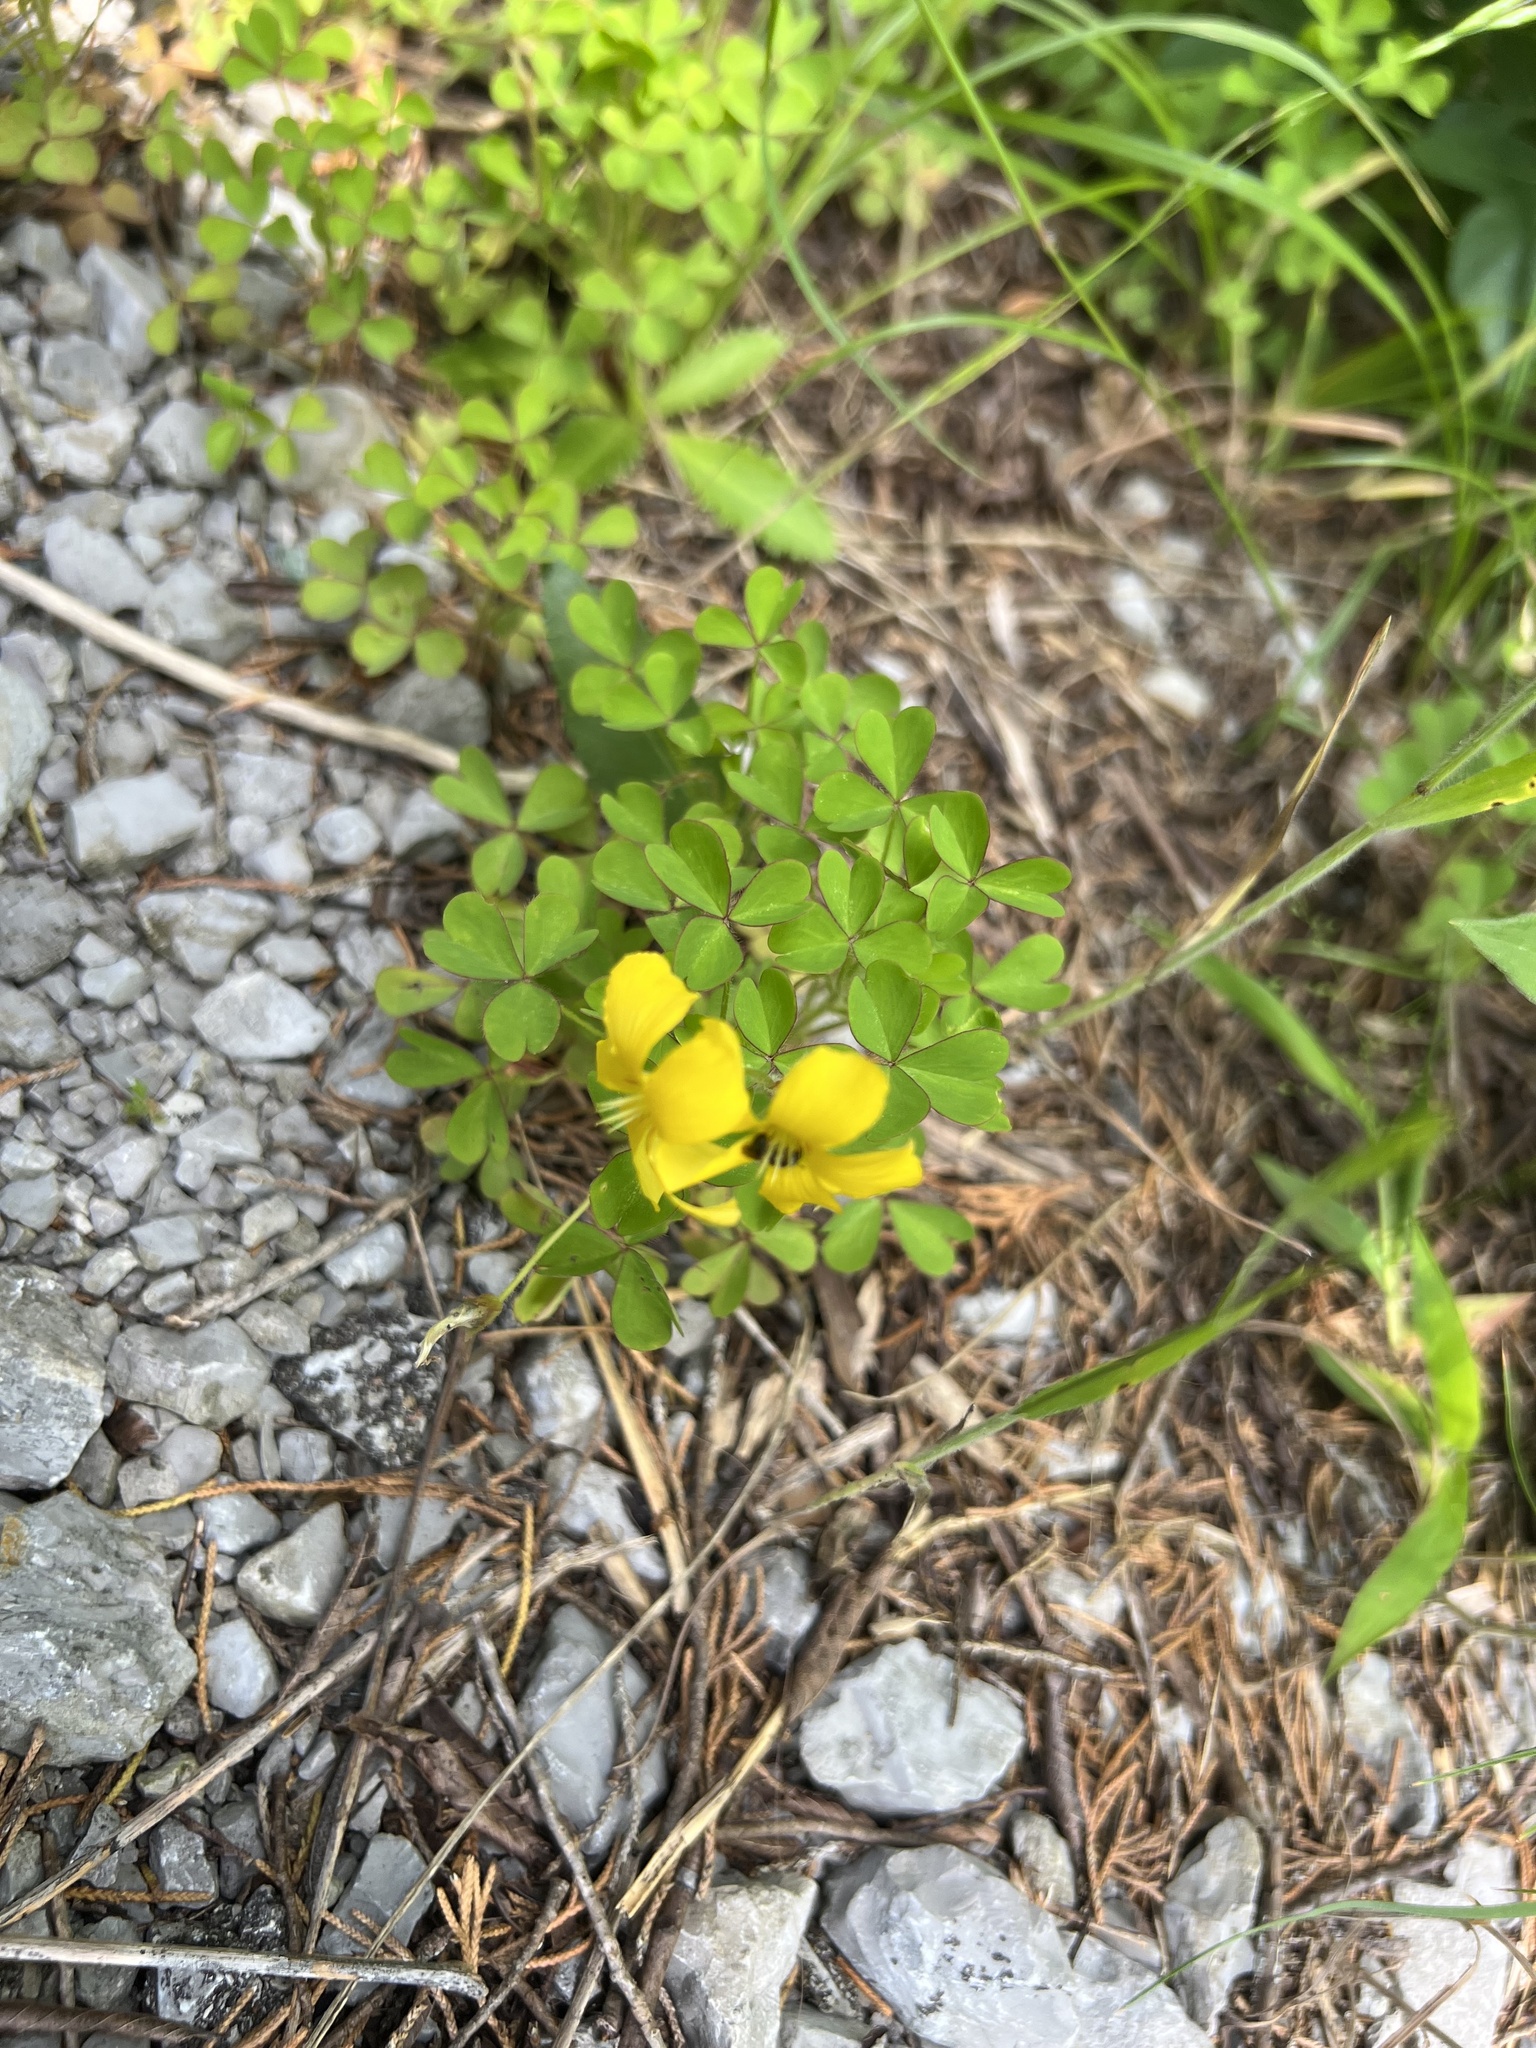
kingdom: Plantae
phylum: Tracheophyta
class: Magnoliopsida
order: Oxalidales
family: Oxalidaceae
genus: Oxalis
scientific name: Oxalis macrantha
